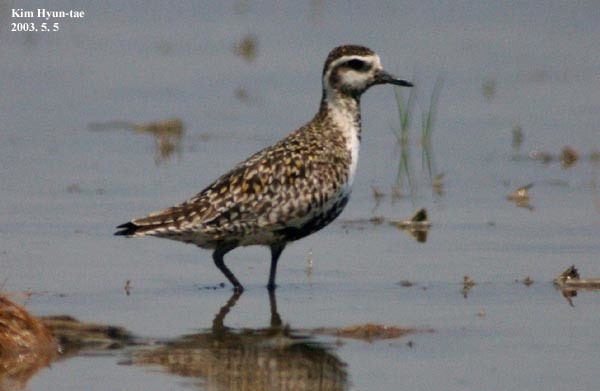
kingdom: Animalia
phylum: Chordata
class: Aves
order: Charadriiformes
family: Charadriidae
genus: Pluvialis
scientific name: Pluvialis fulva
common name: Pacific golden plover
